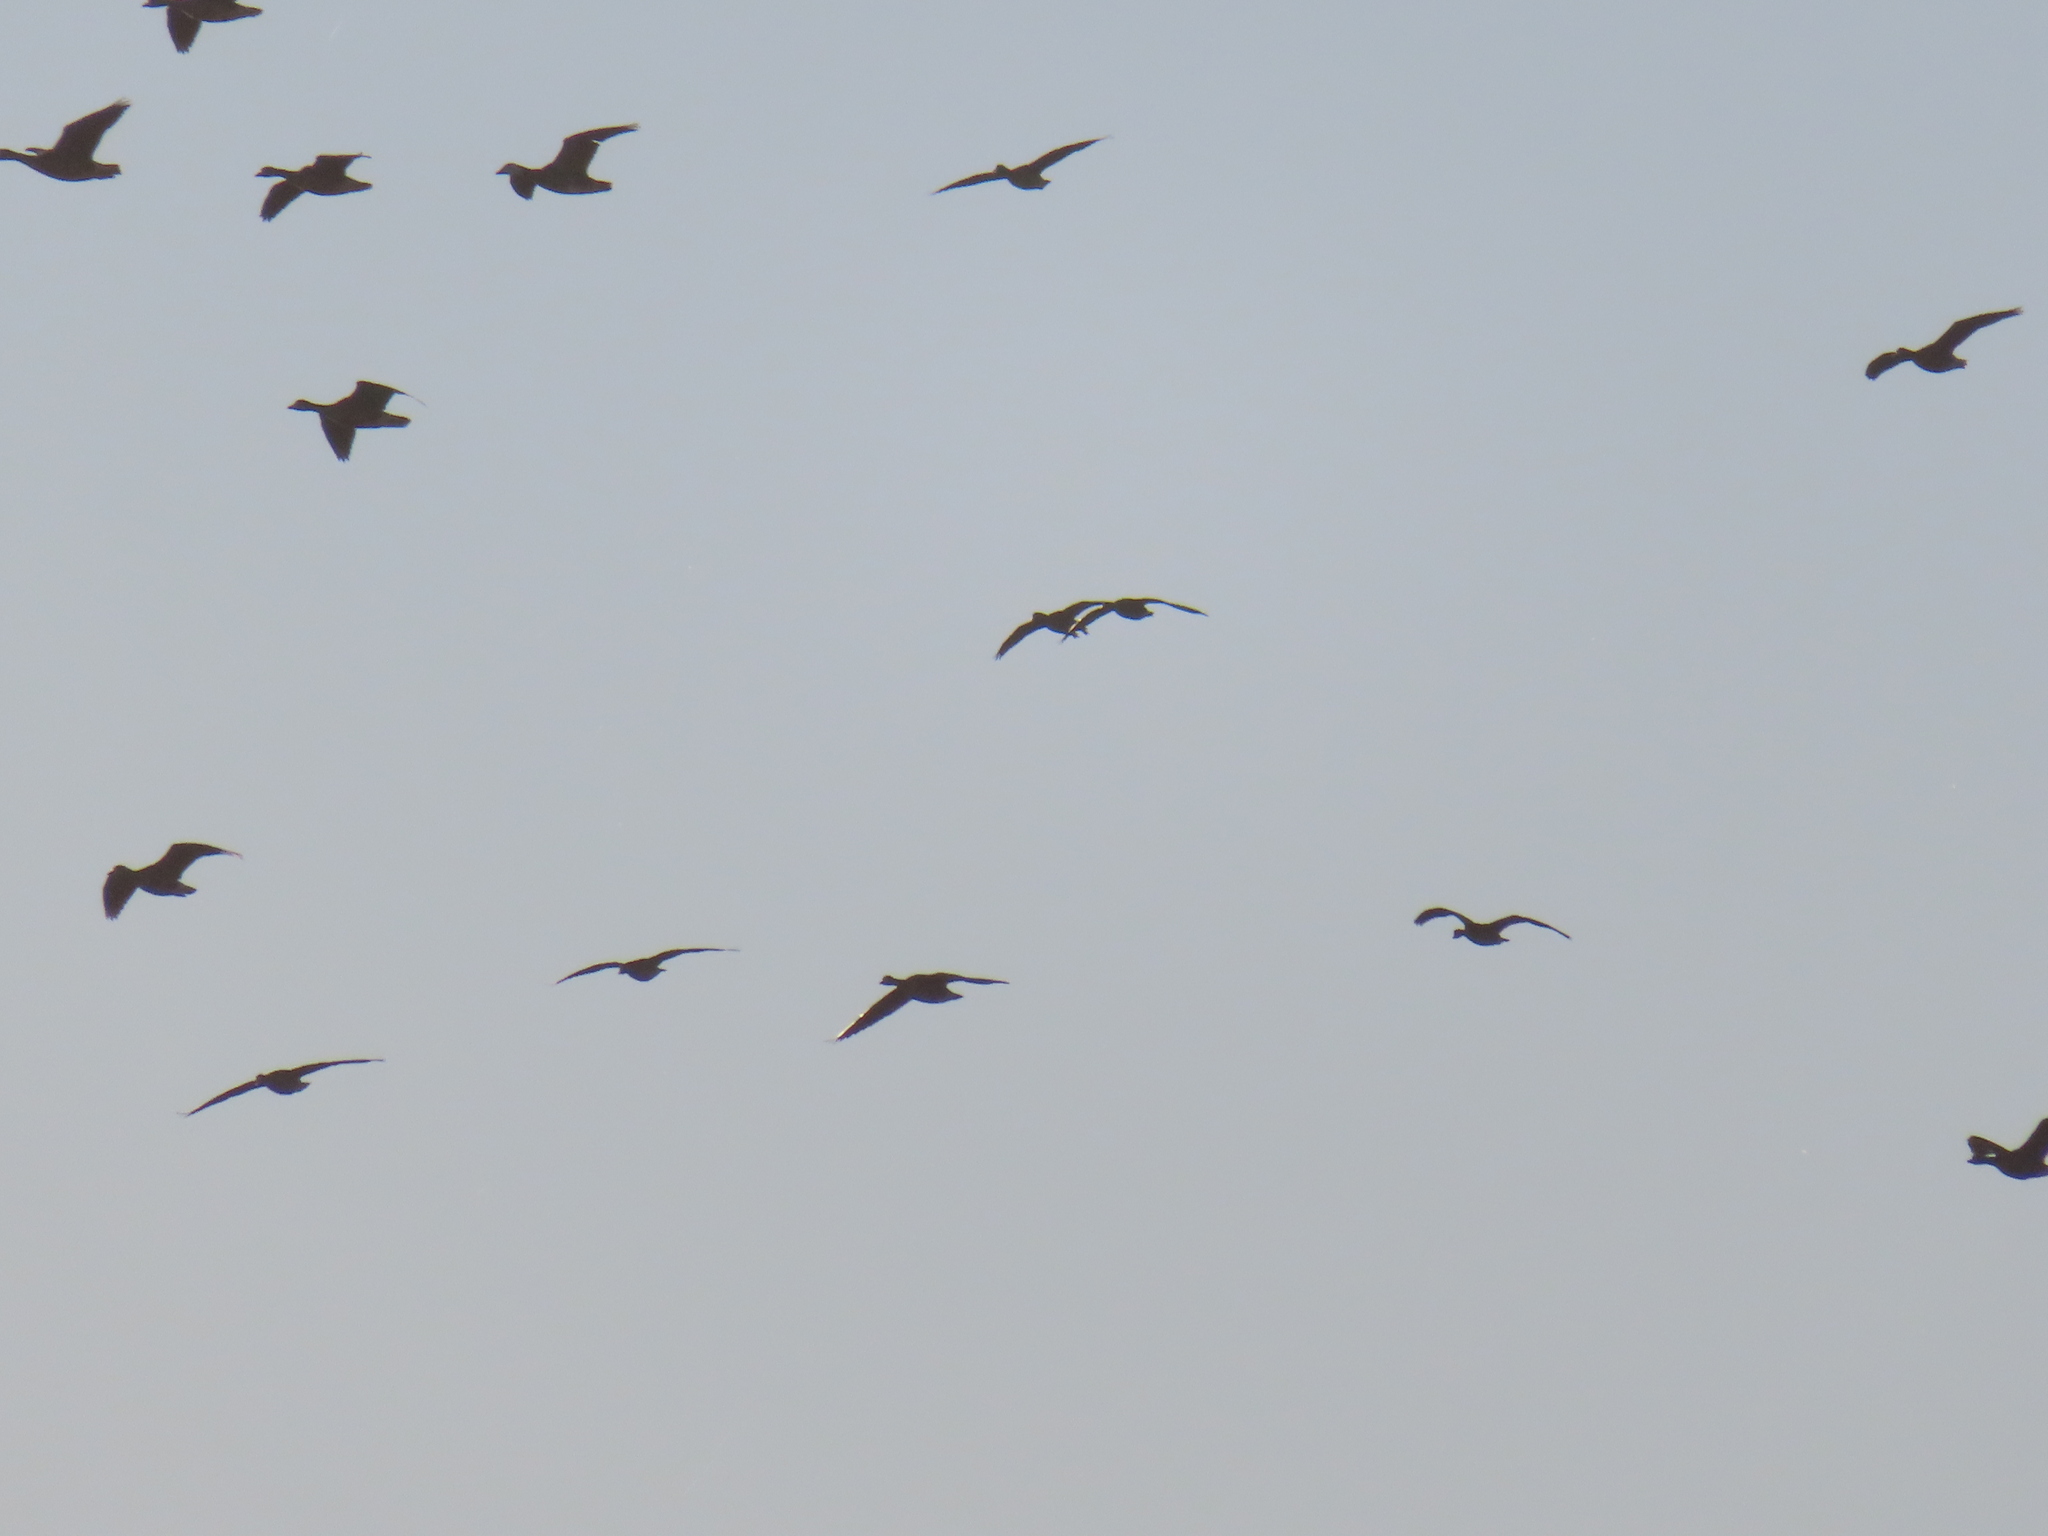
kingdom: Animalia
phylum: Chordata
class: Aves
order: Anseriformes
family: Anatidae
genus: Anser
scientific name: Anser caerulescens
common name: Snow goose
